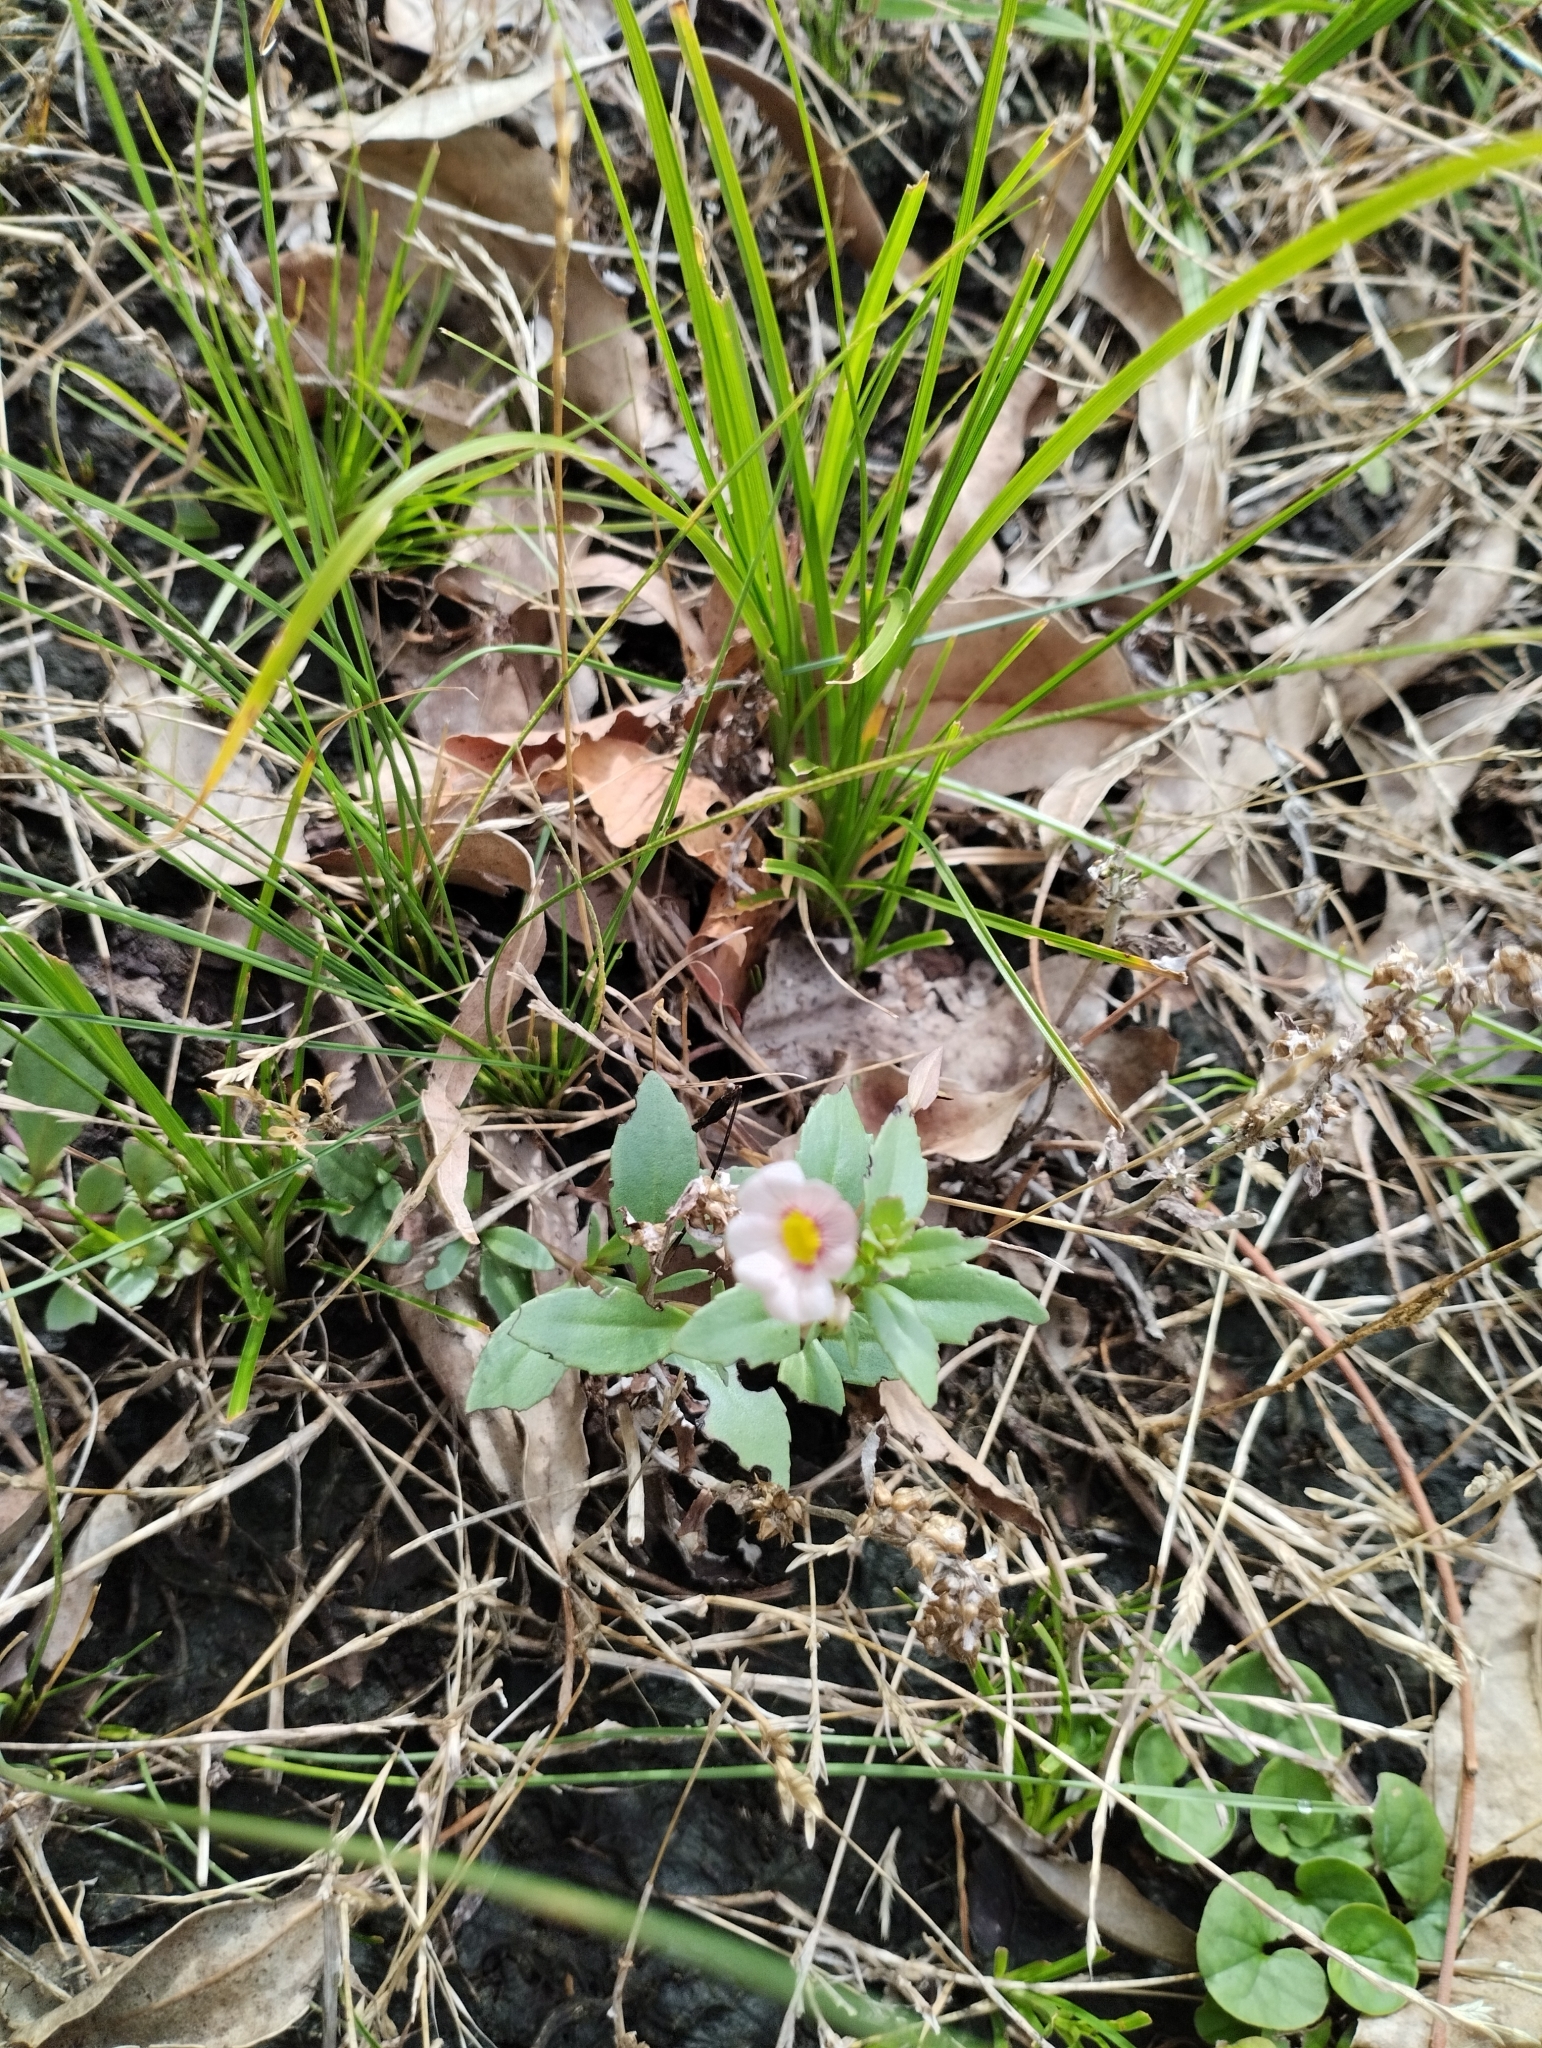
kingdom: Plantae
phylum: Tracheophyta
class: Magnoliopsida
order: Lamiales
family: Plantaginaceae
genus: Mecardonia
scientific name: Mecardonia procumbens
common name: Baby jump-up
